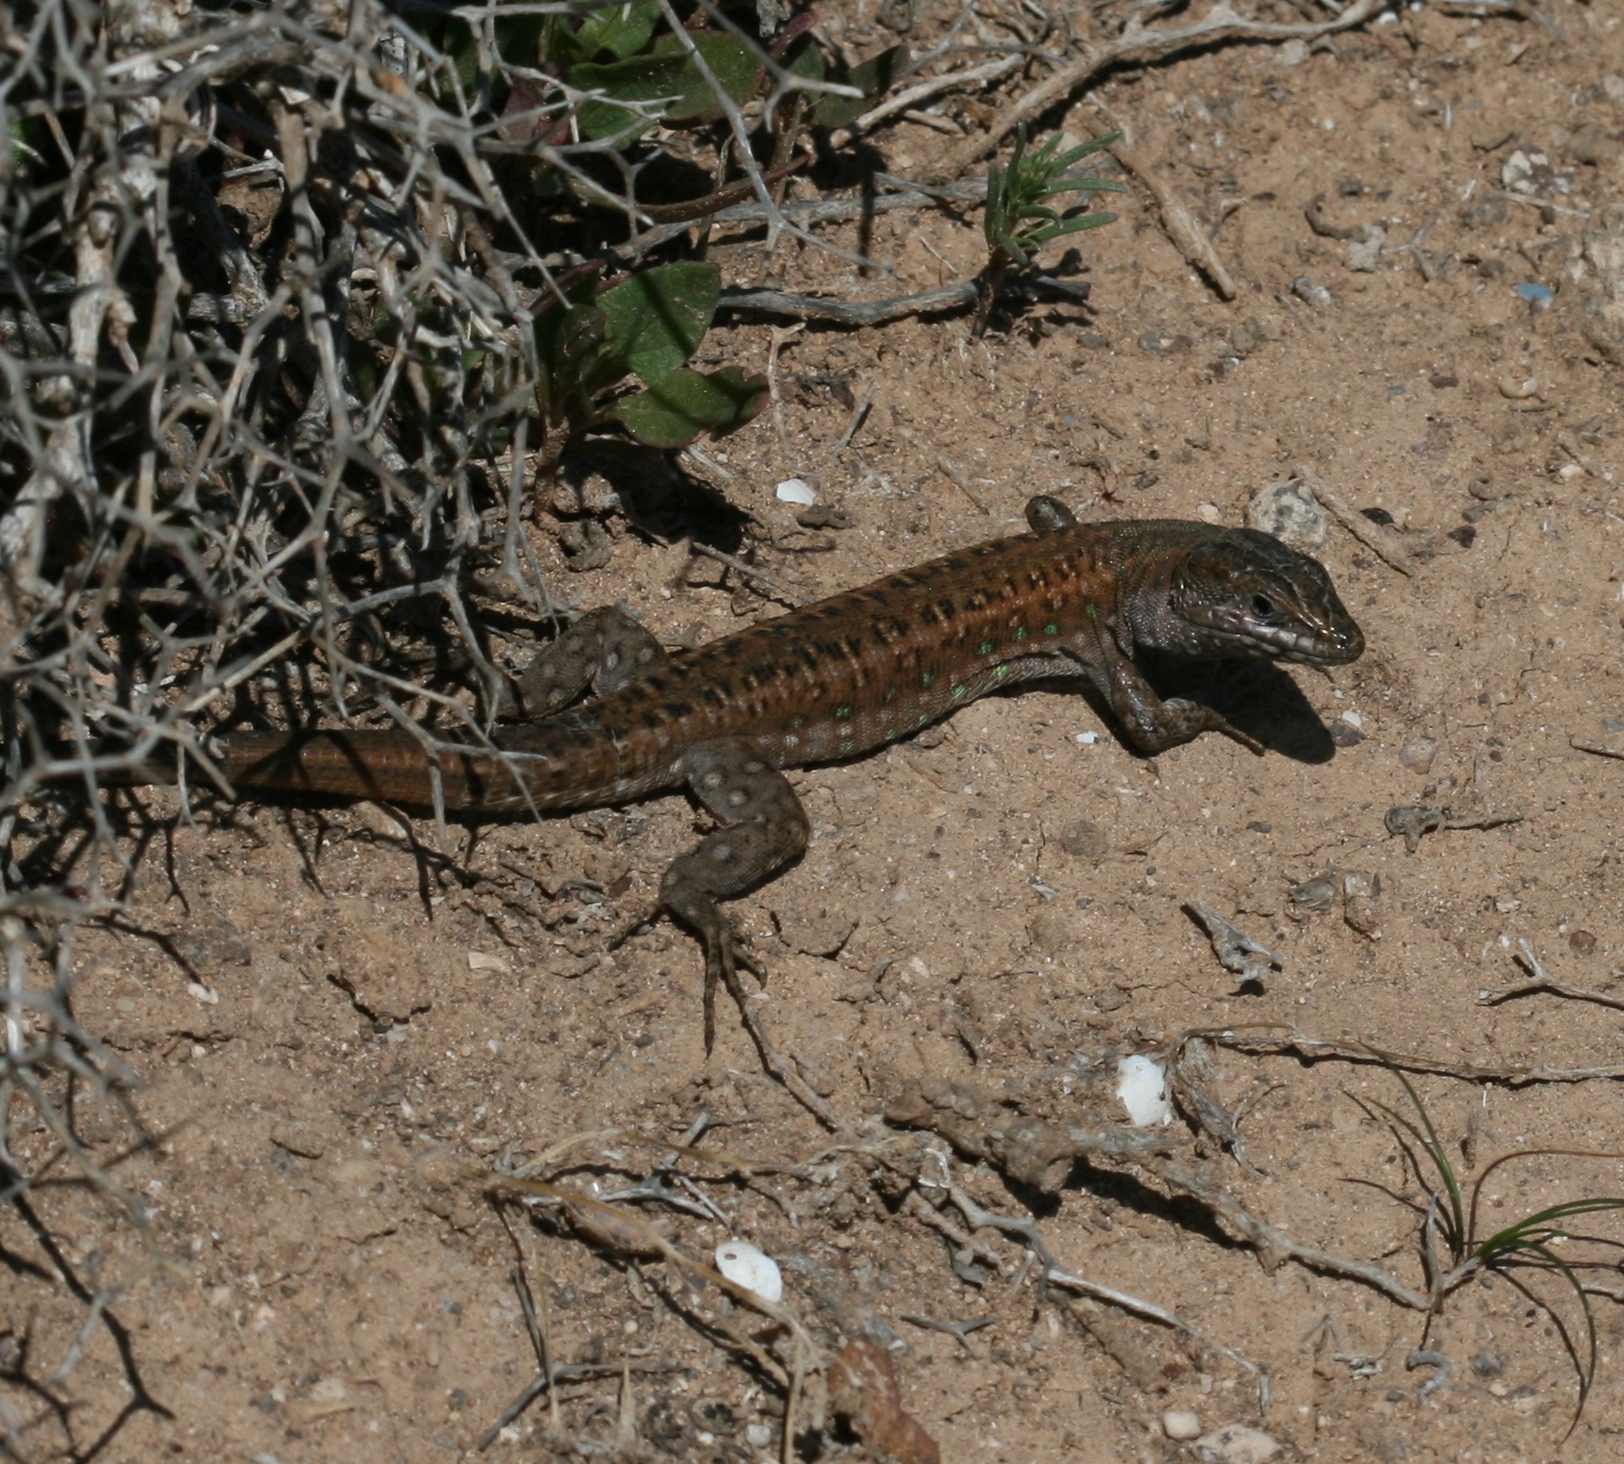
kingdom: Animalia
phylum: Chordata
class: Squamata
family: Lacertidae
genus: Gallotia
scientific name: Gallotia atlantica
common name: Atlantic lizard
